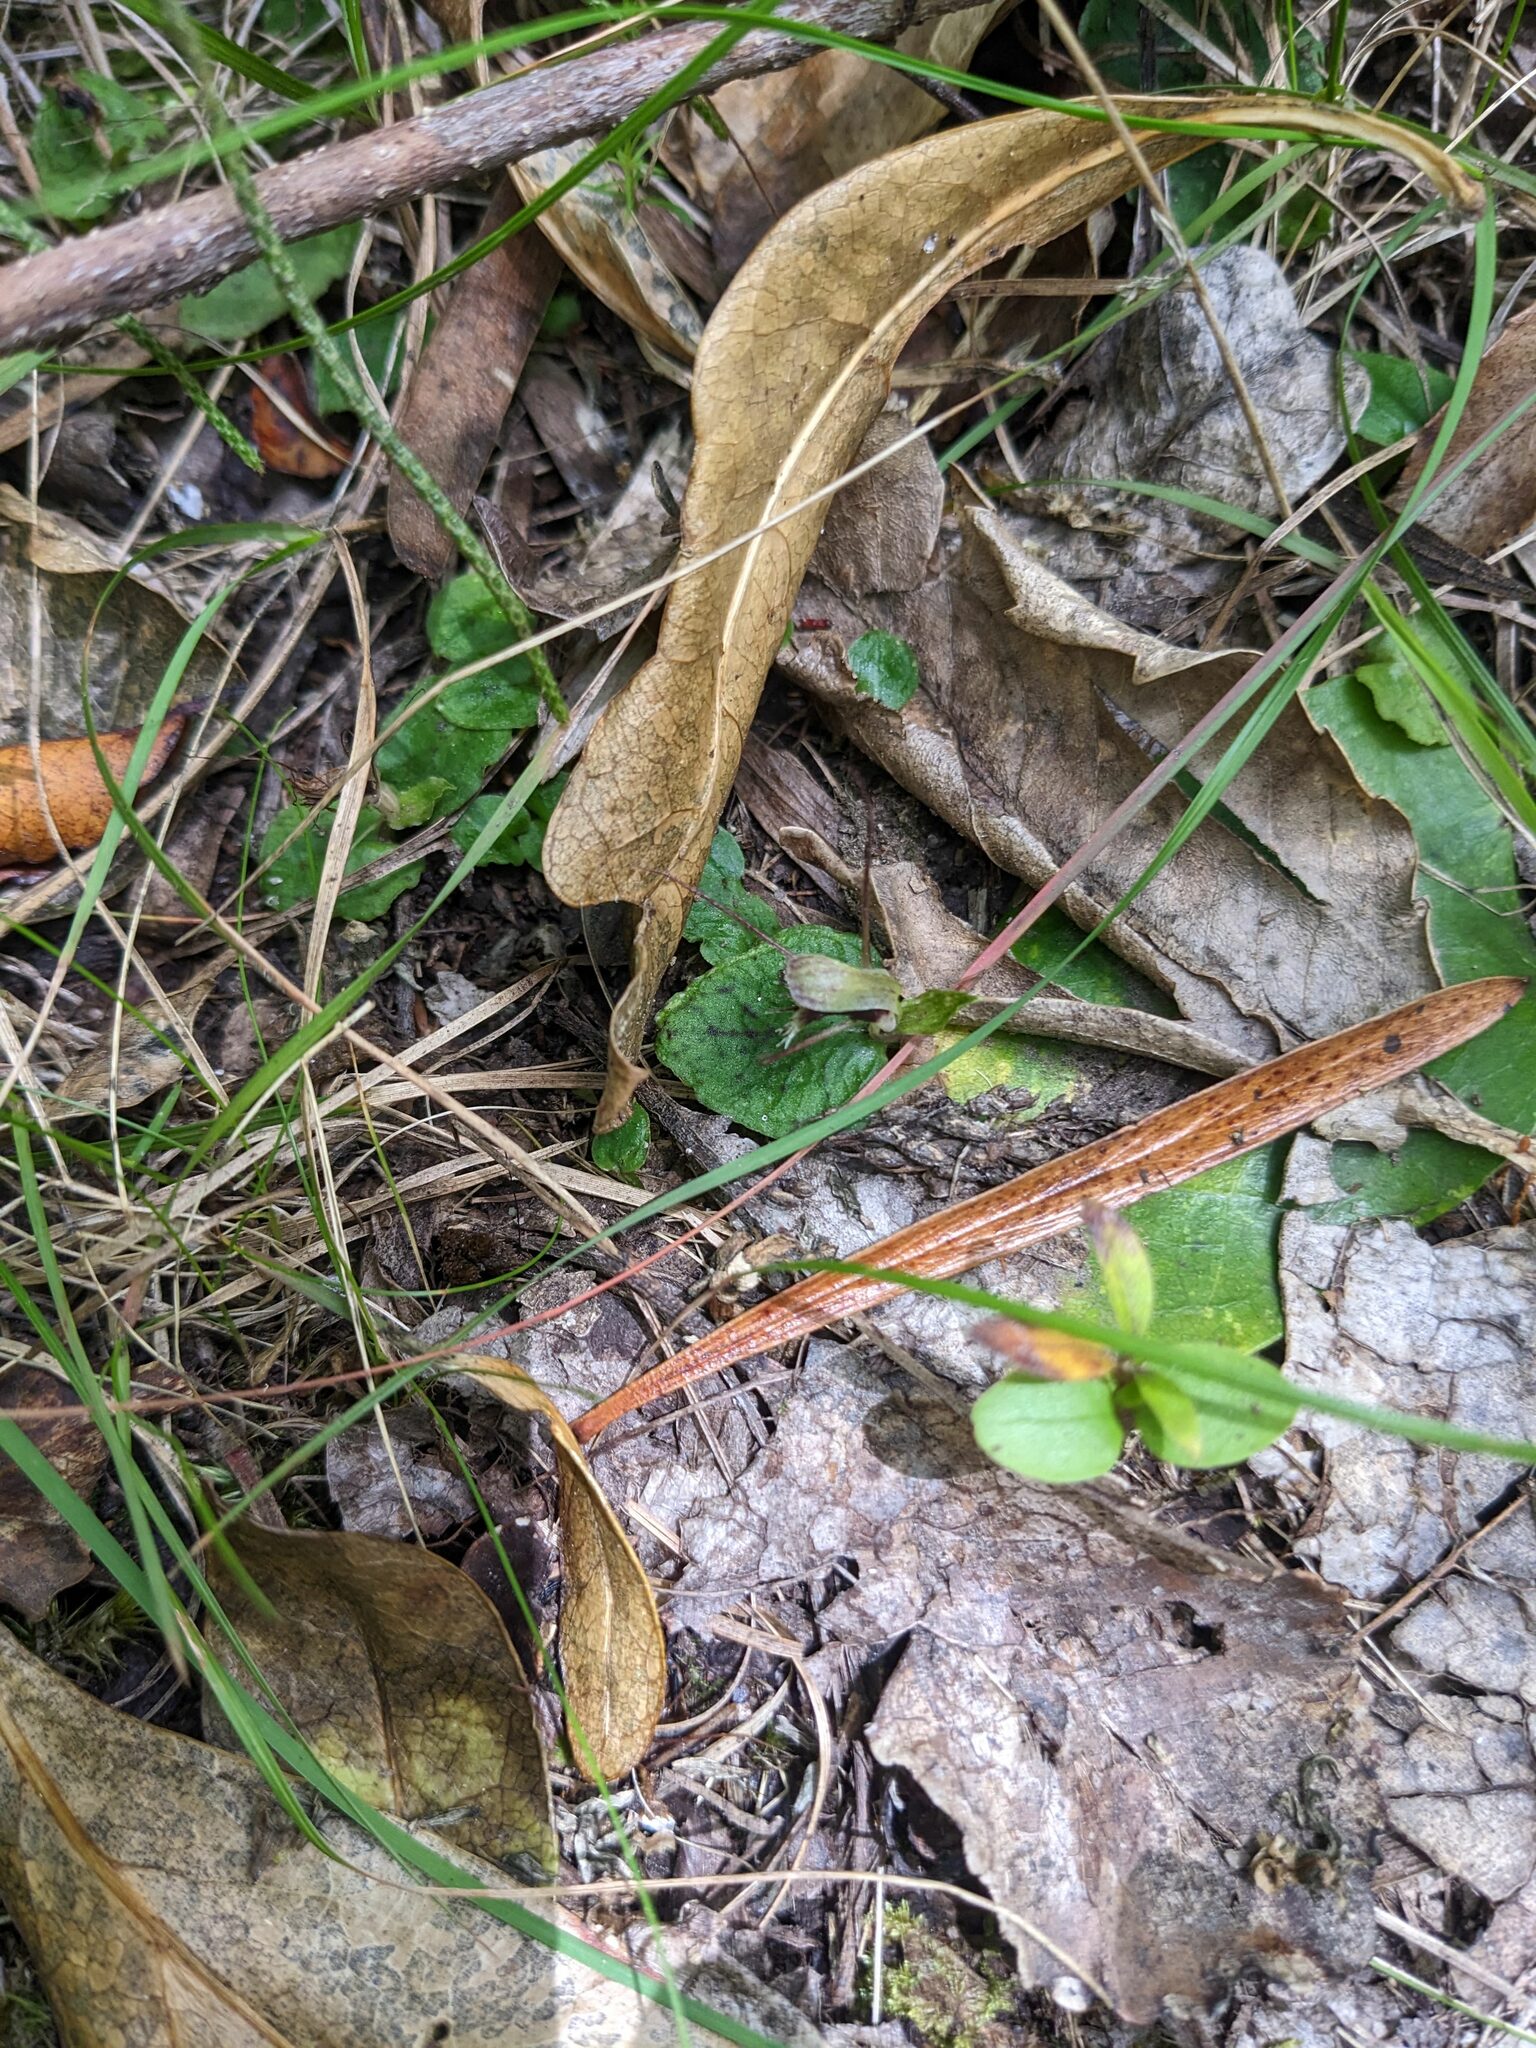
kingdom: Plantae
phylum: Tracheophyta
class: Liliopsida
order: Asparagales
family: Orchidaceae
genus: Corybas
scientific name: Corybas oblongus
